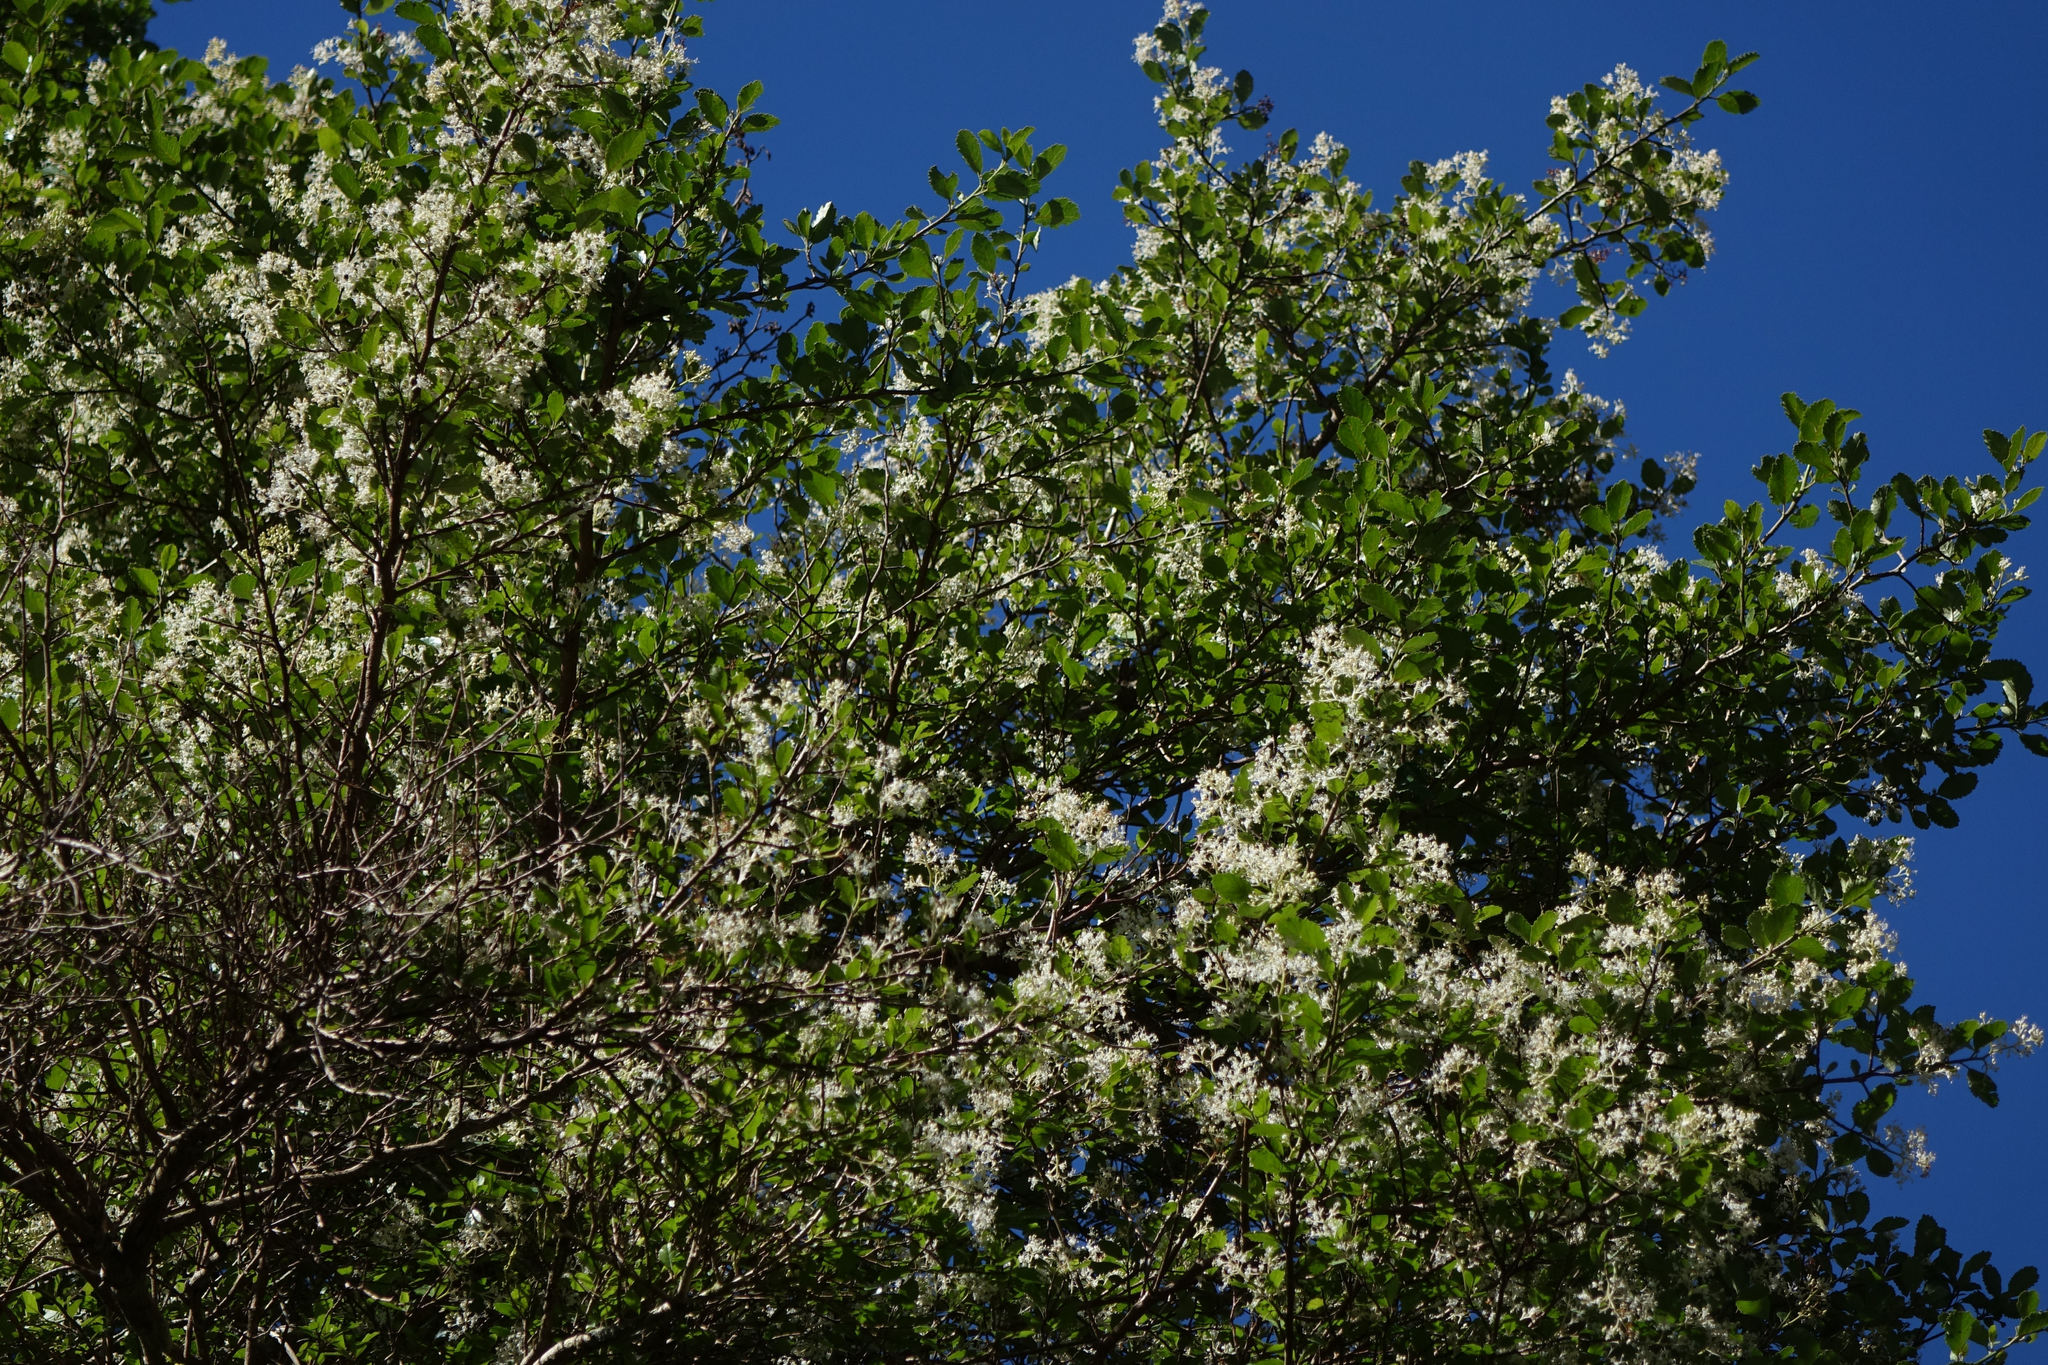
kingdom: Plantae
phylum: Tracheophyta
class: Magnoliopsida
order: Apiales
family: Pennantiaceae
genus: Pennantia
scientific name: Pennantia corymbosa
